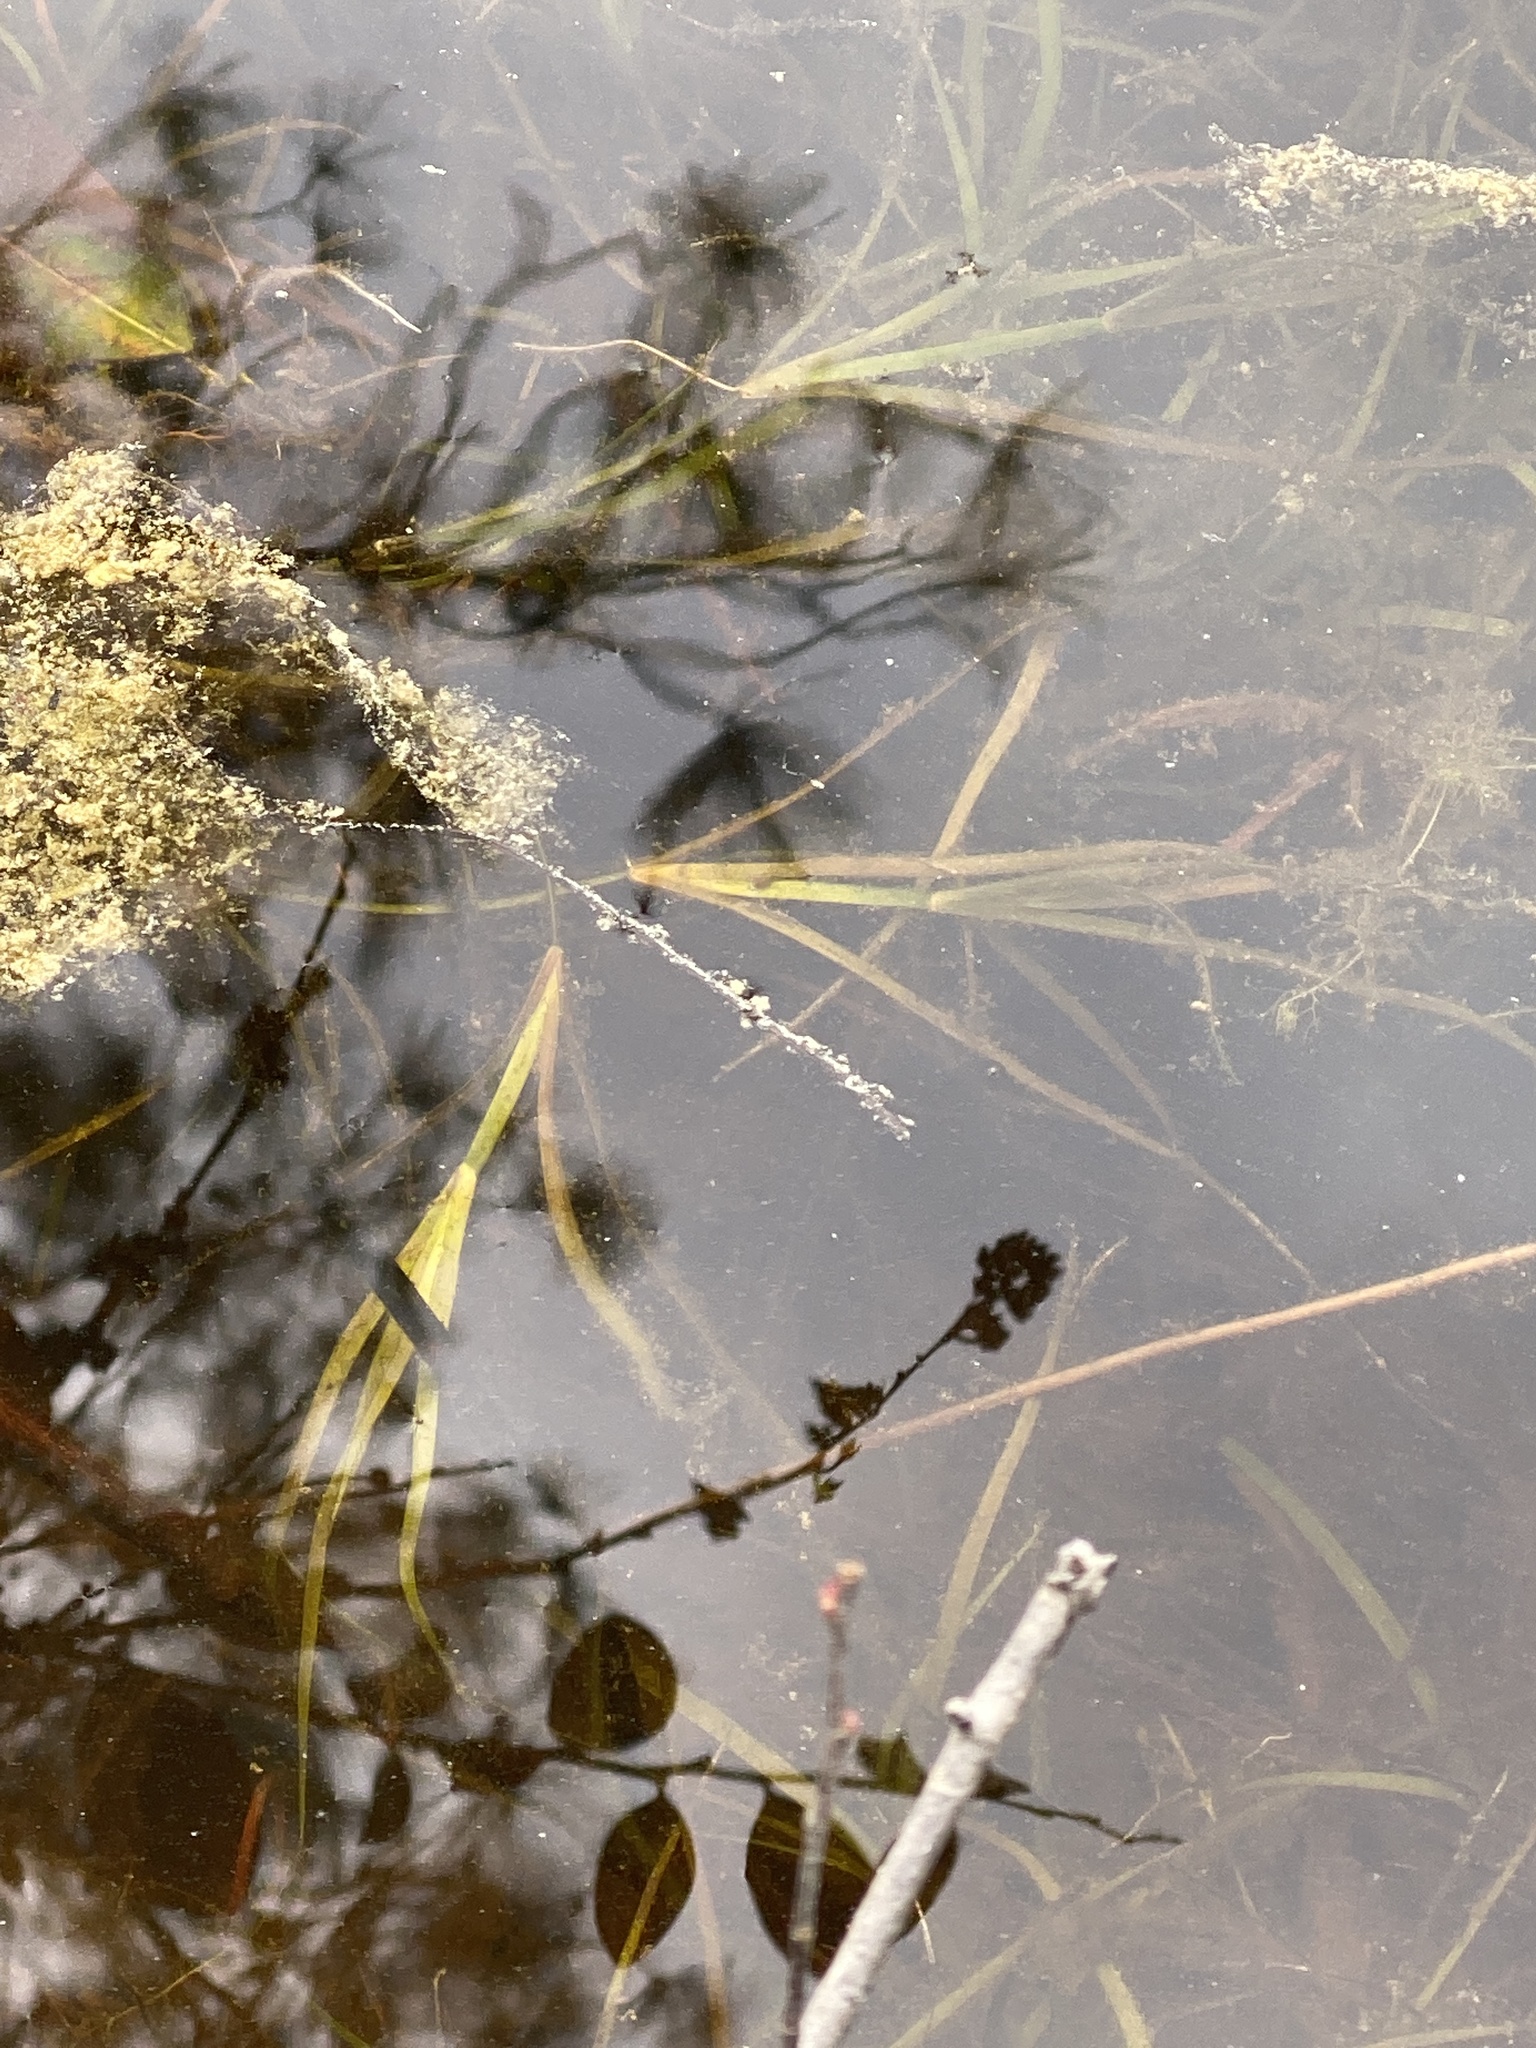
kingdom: Plantae
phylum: Tracheophyta
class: Liliopsida
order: Poales
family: Juncaceae
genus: Juncus
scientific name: Juncus repens
